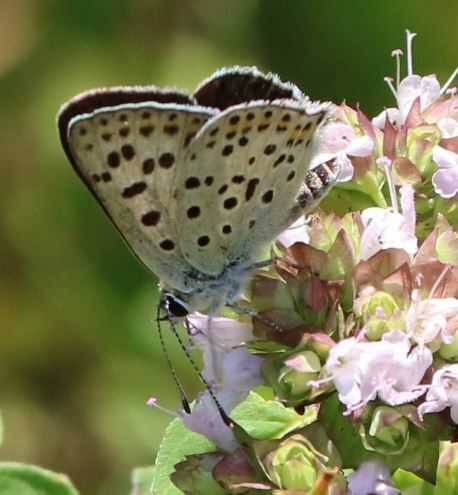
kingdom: Animalia
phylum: Arthropoda
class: Insecta
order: Lepidoptera
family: Lycaenidae
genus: Loweia
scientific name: Loweia tityrus
